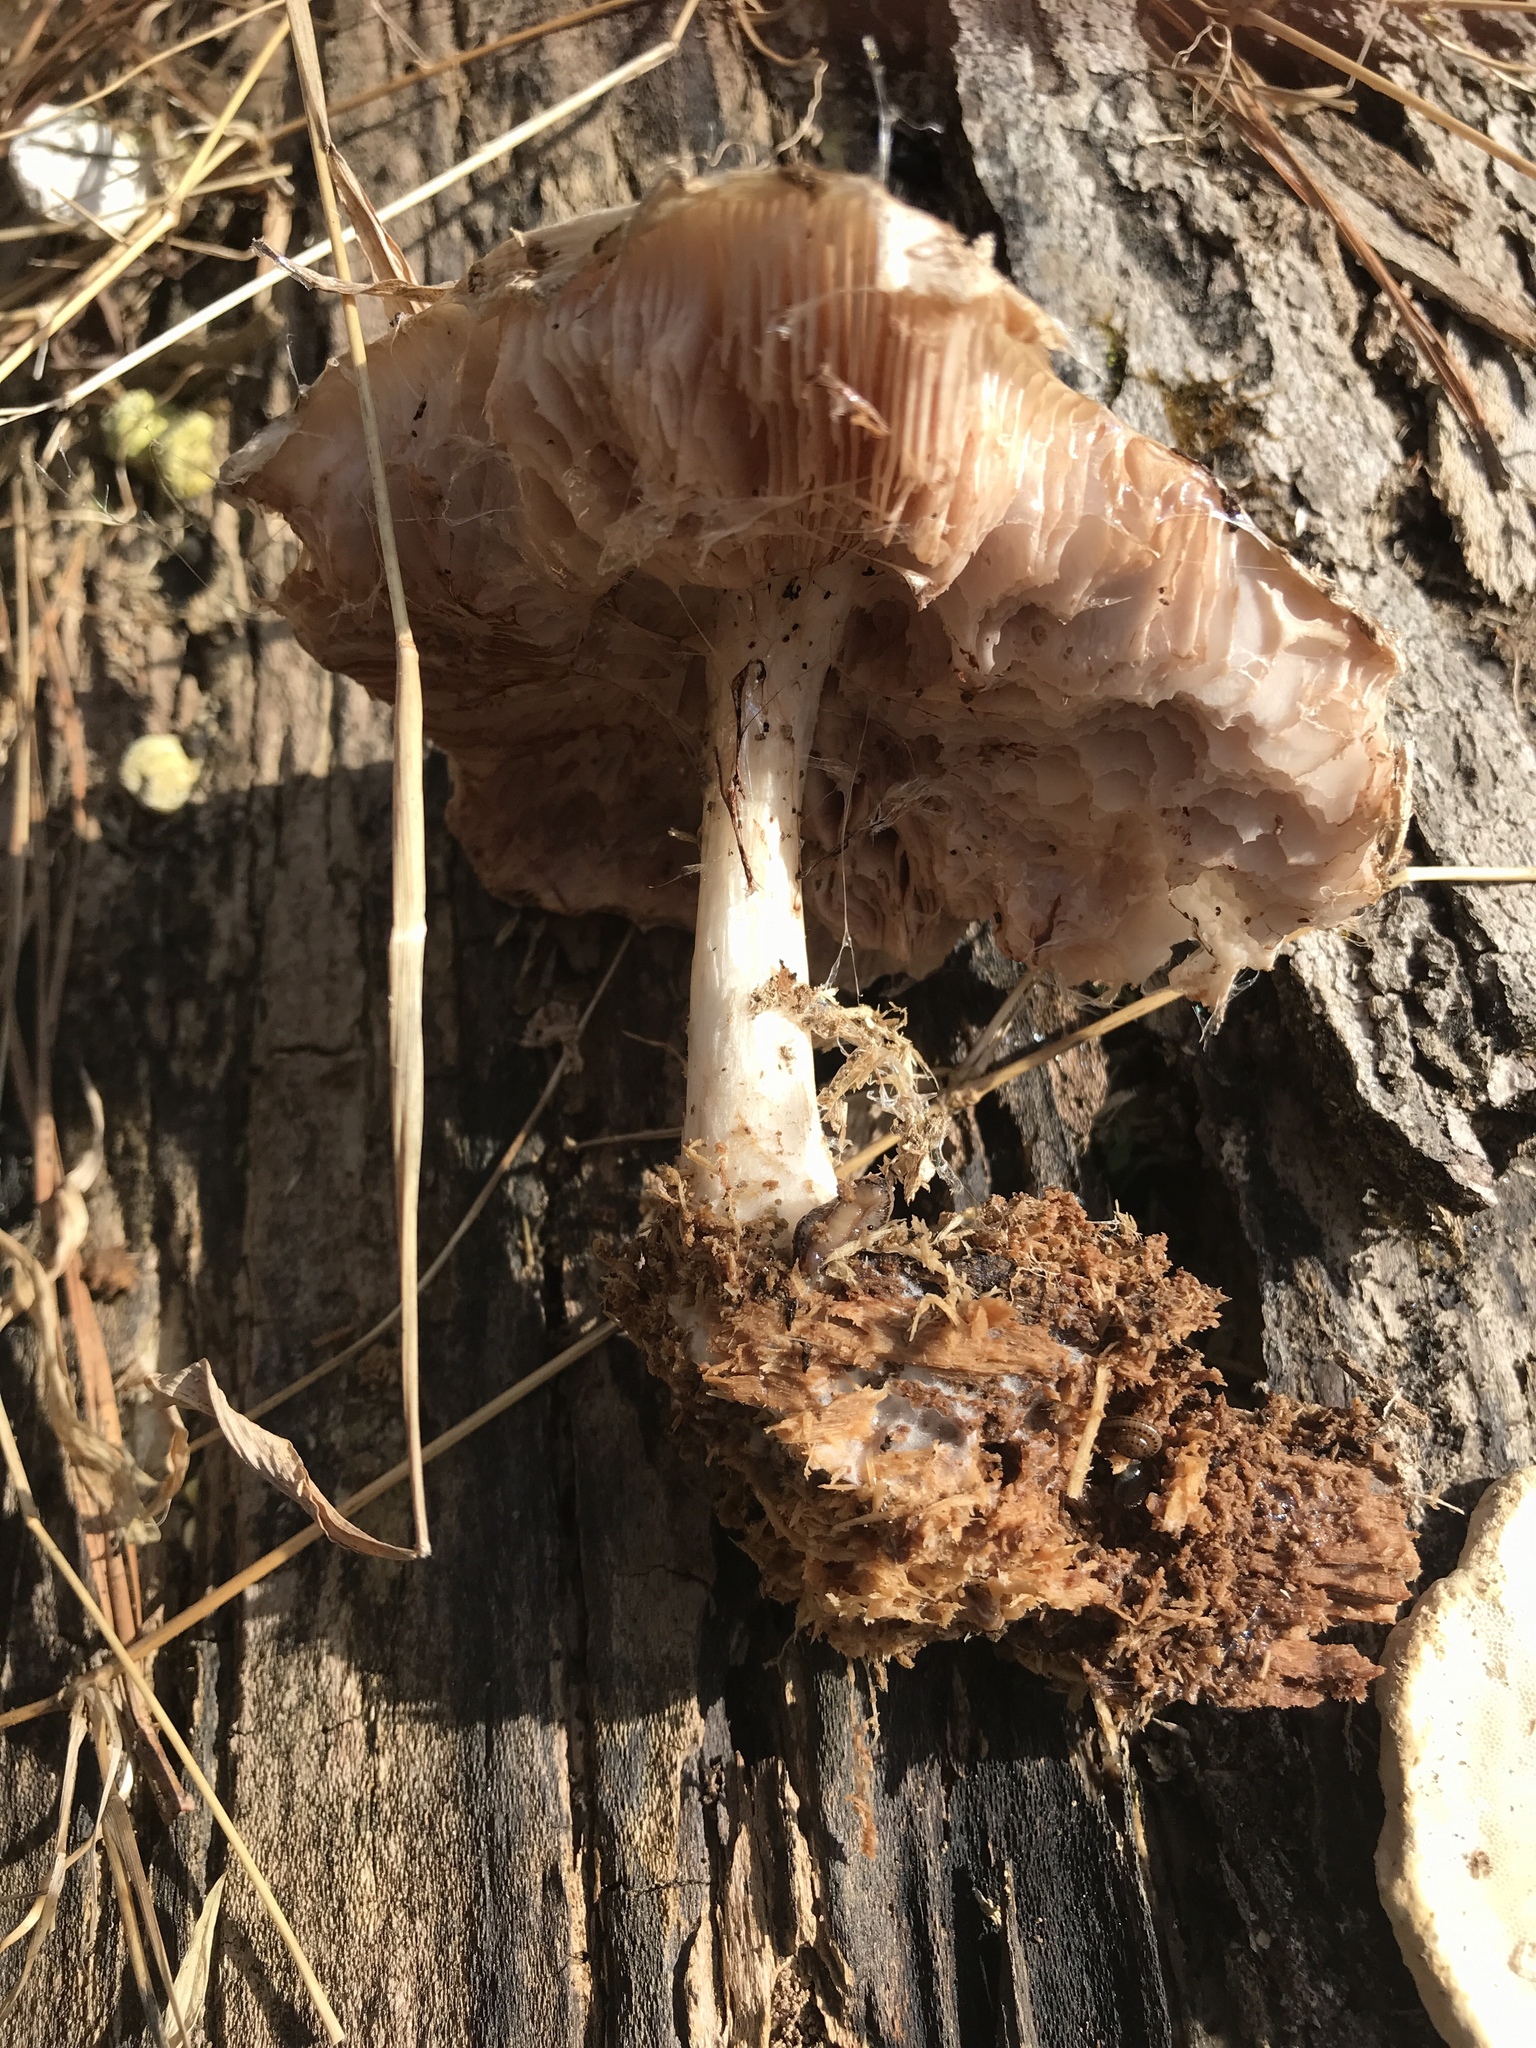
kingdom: Fungi
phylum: Basidiomycota
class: Agaricomycetes
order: Agaricales
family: Pluteaceae
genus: Pluteus
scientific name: Pluteus cervinus
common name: Deer shield
